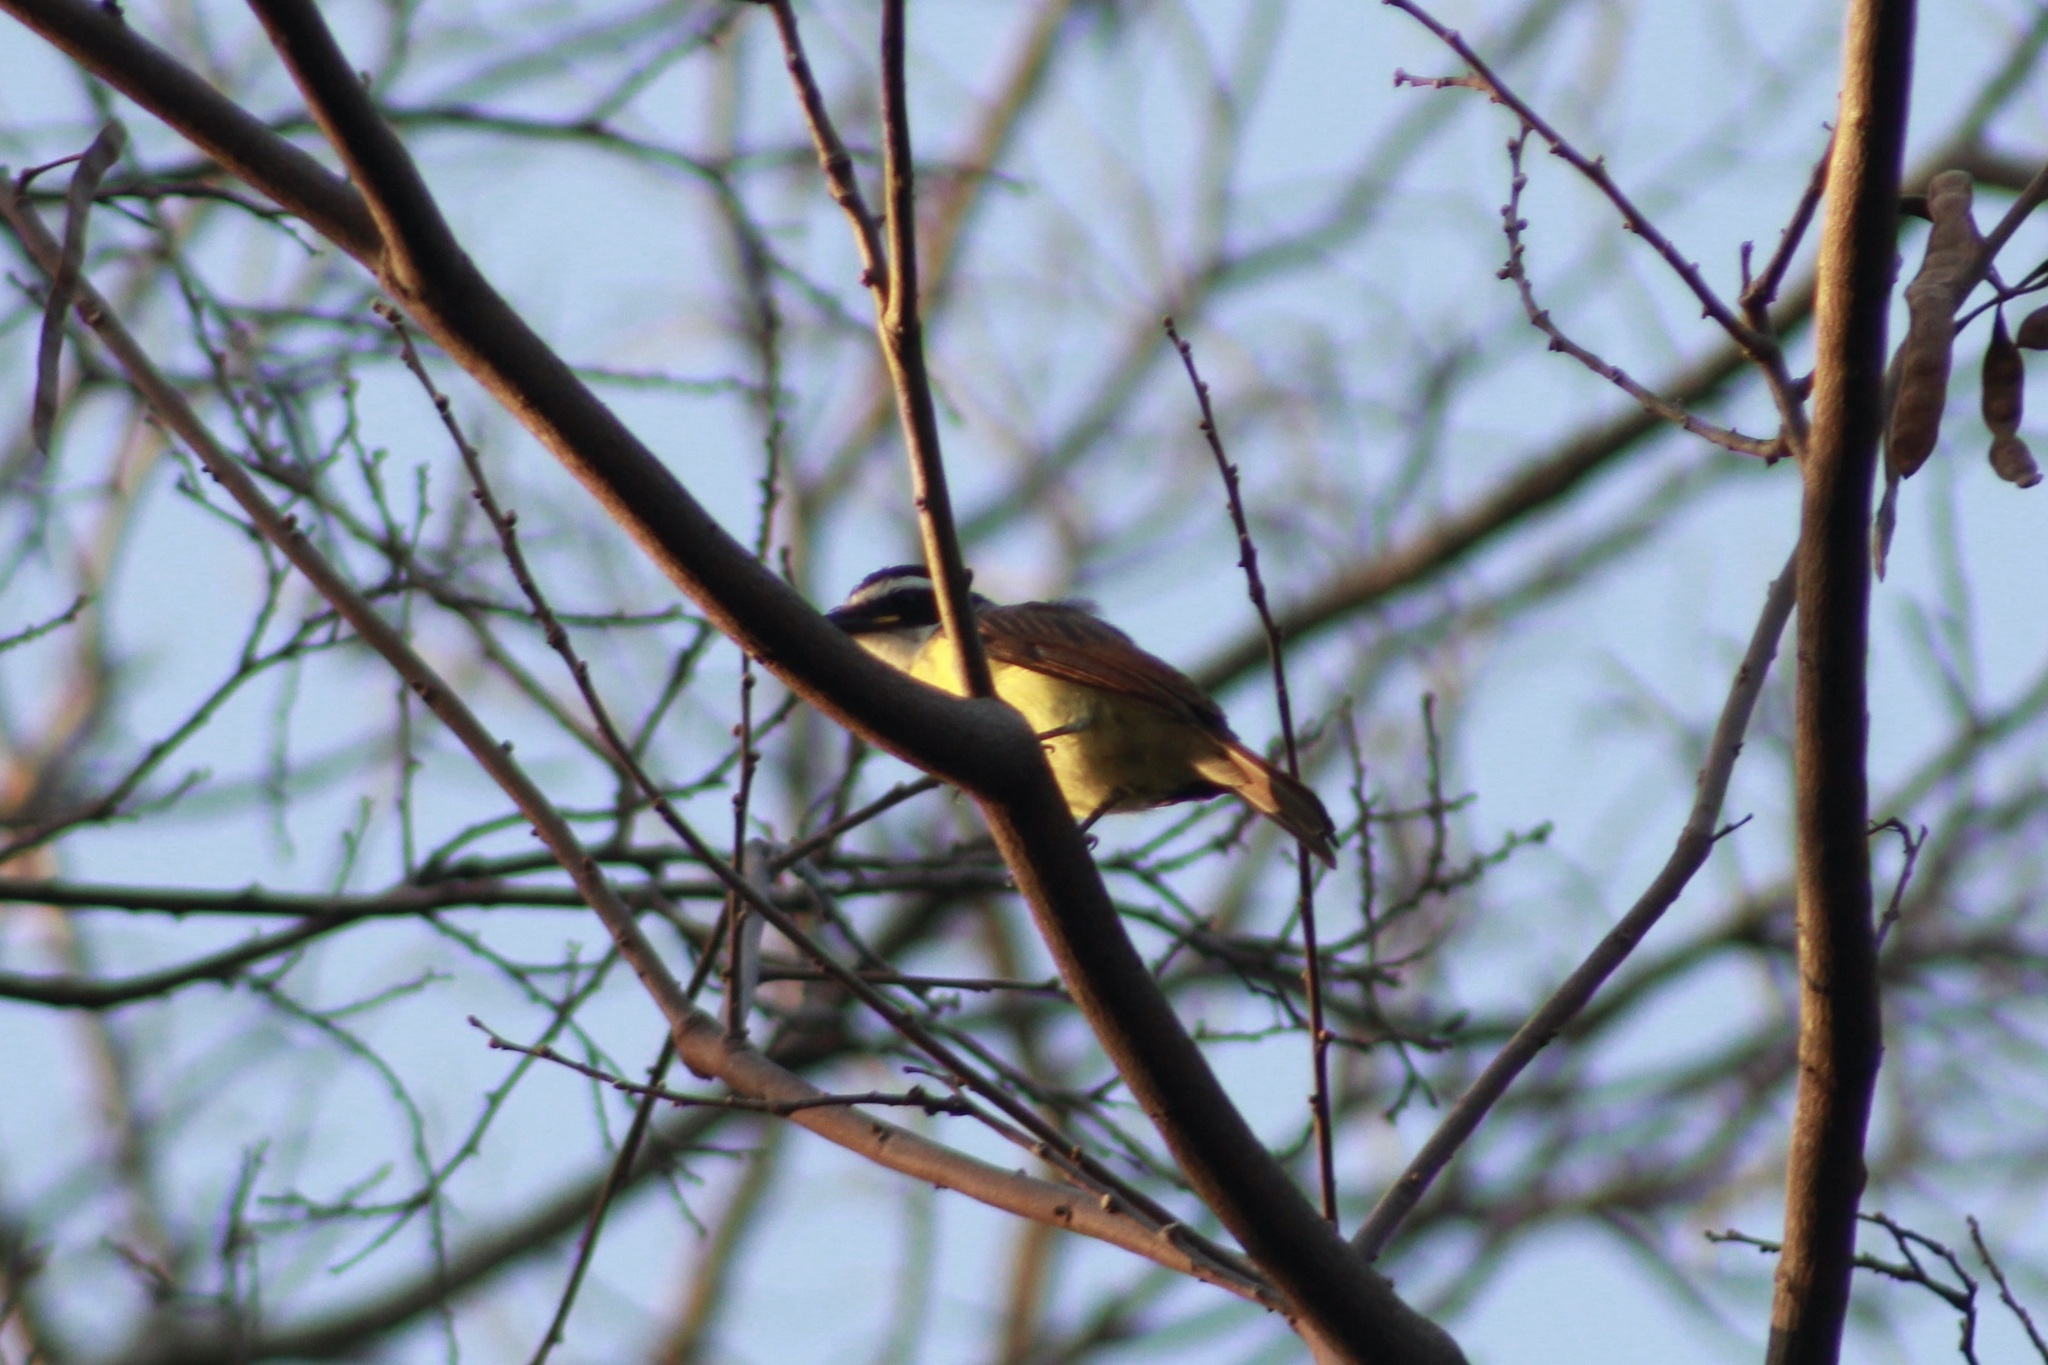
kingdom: Animalia
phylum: Chordata
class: Aves
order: Passeriformes
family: Tyrannidae
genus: Pitangus
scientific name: Pitangus sulphuratus
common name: Great kiskadee
